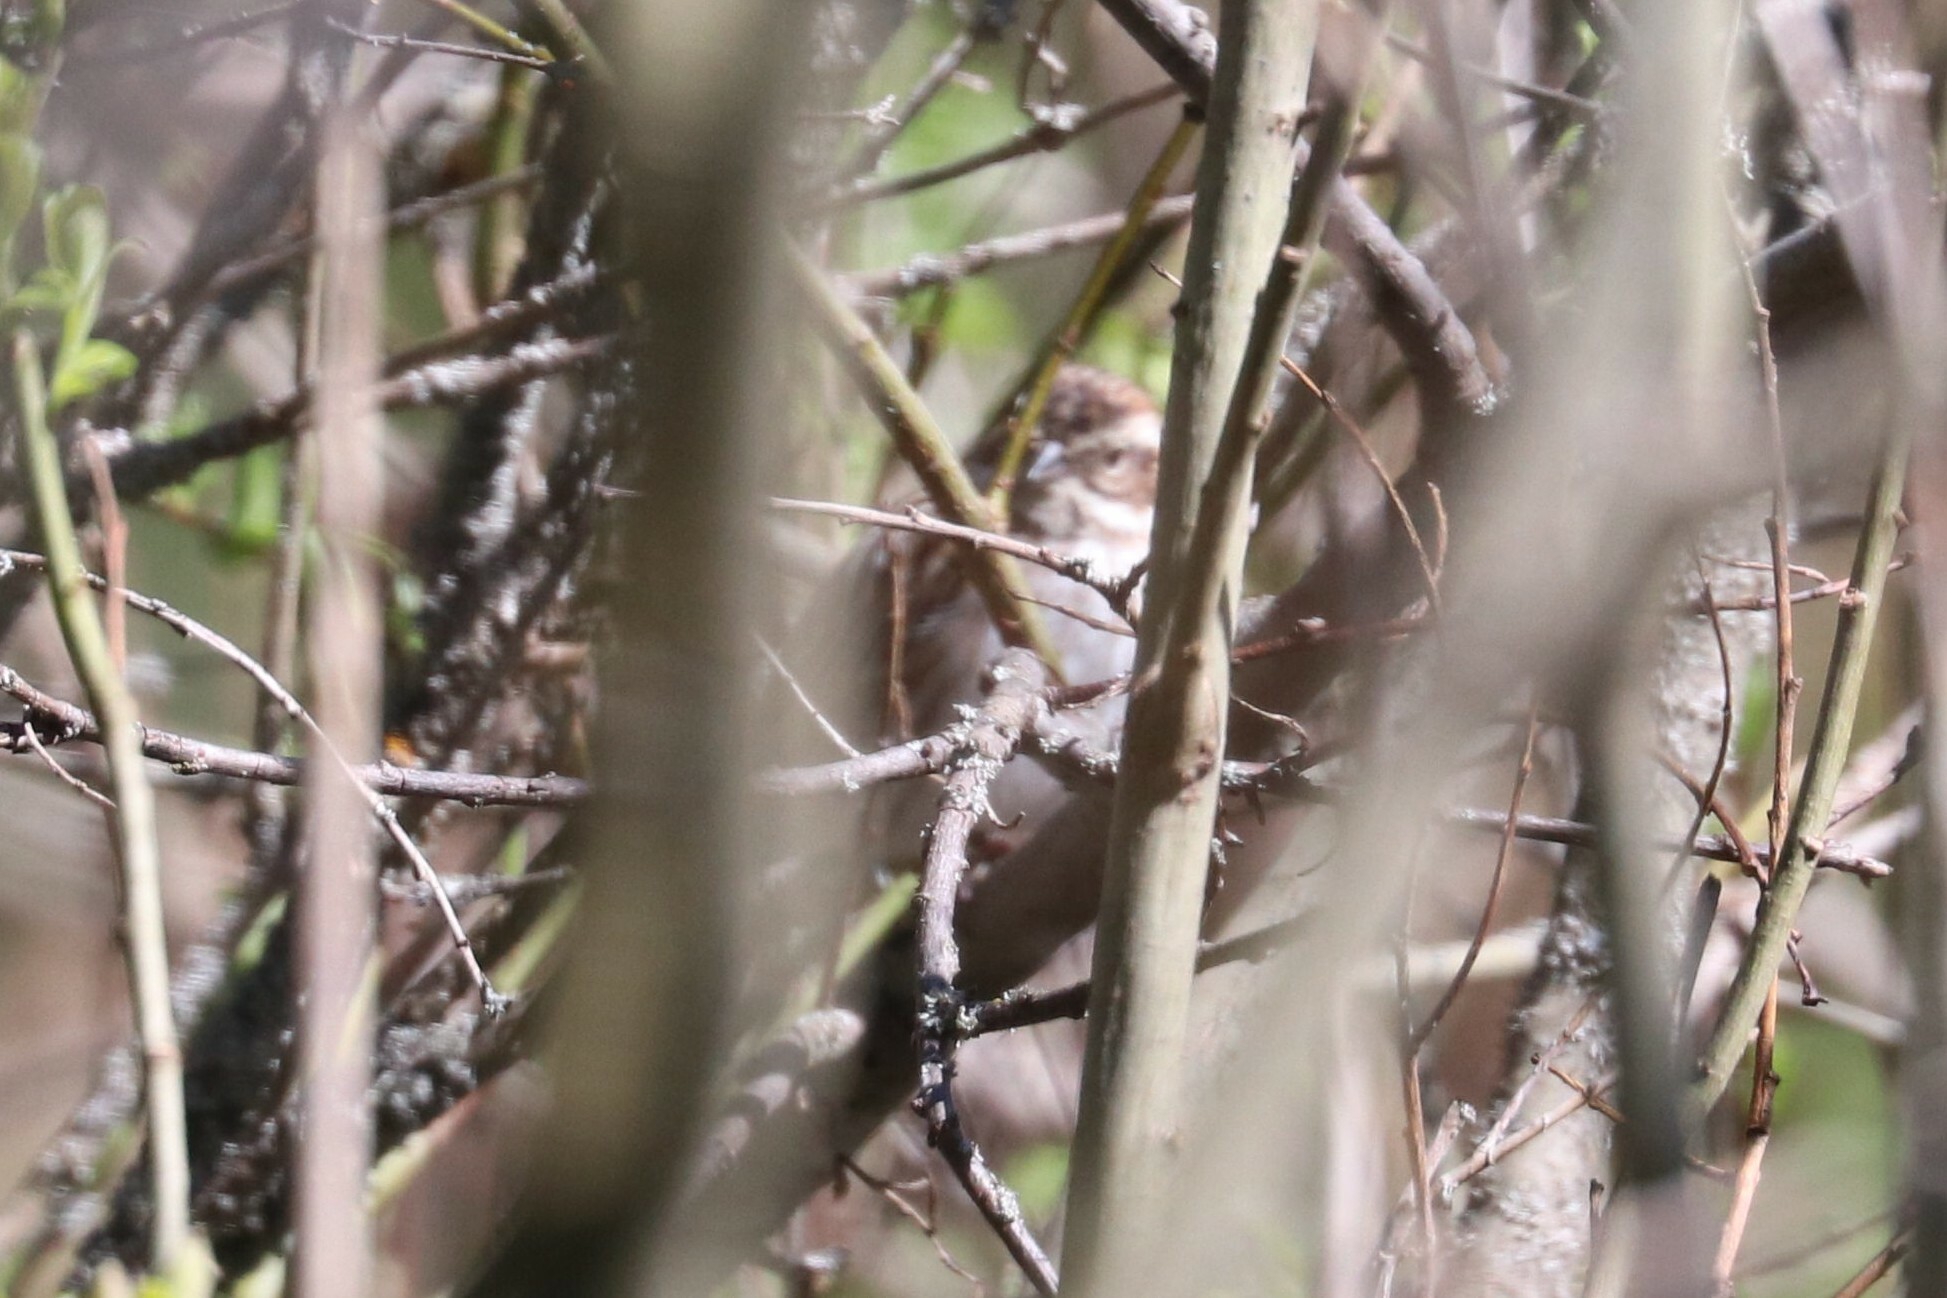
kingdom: Animalia
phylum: Chordata
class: Aves
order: Passeriformes
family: Emberizidae
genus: Emberiza
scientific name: Emberiza schoeniclus
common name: Reed bunting
